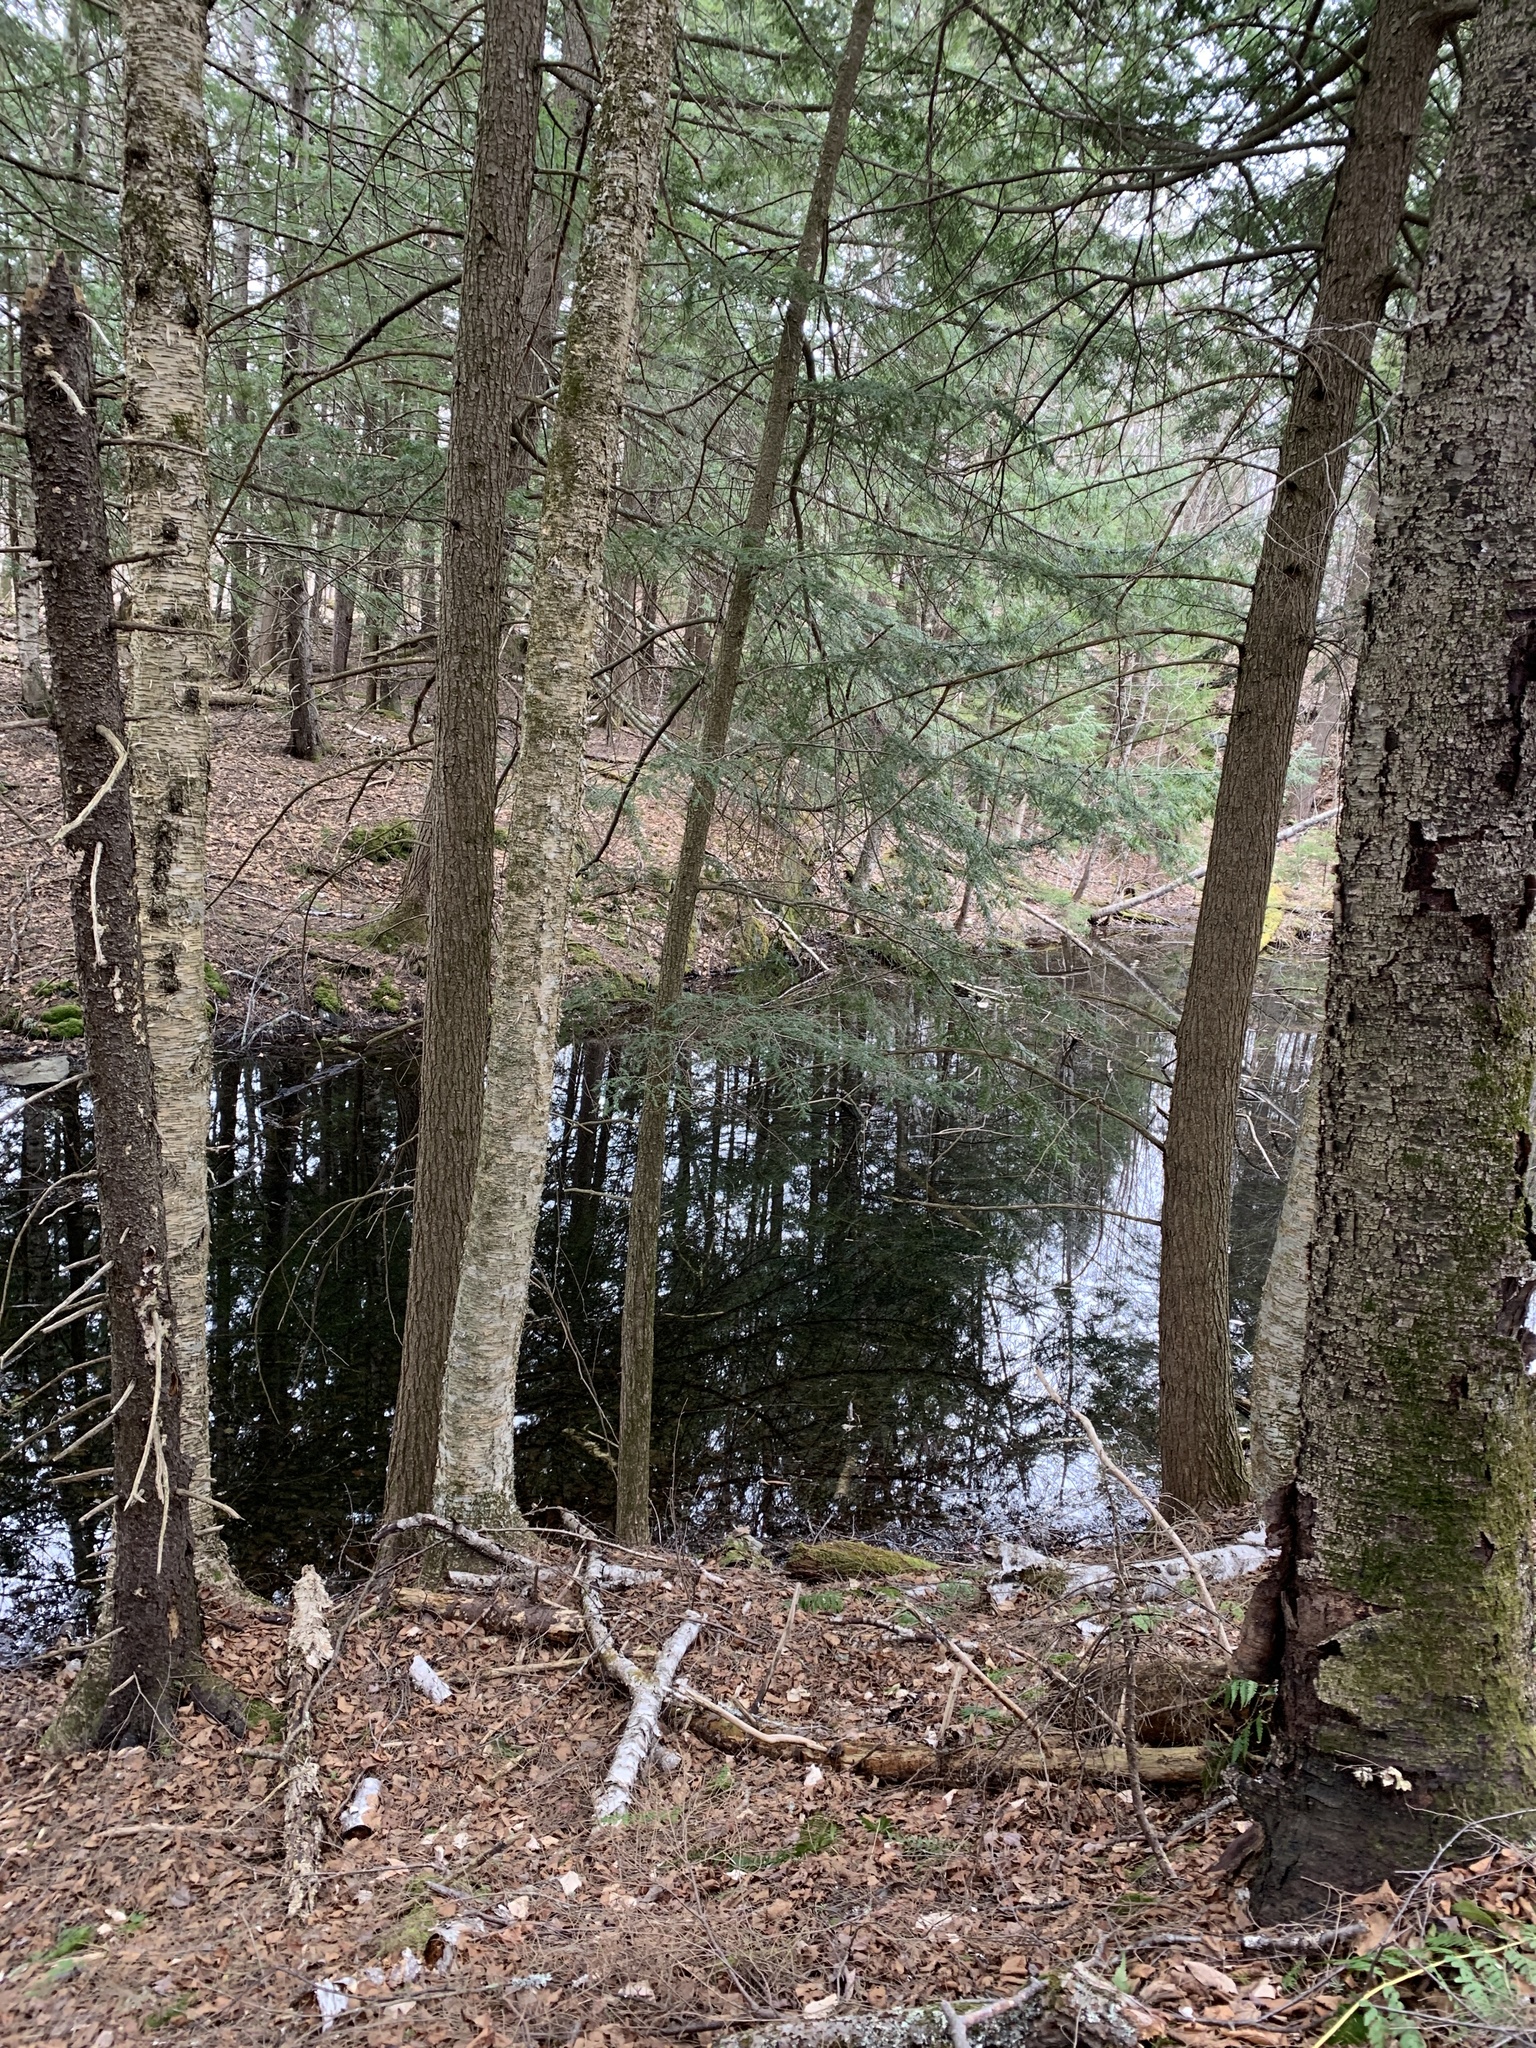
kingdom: Plantae
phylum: Tracheophyta
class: Pinopsida
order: Pinales
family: Pinaceae
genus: Tsuga
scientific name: Tsuga canadensis
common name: Eastern hemlock
